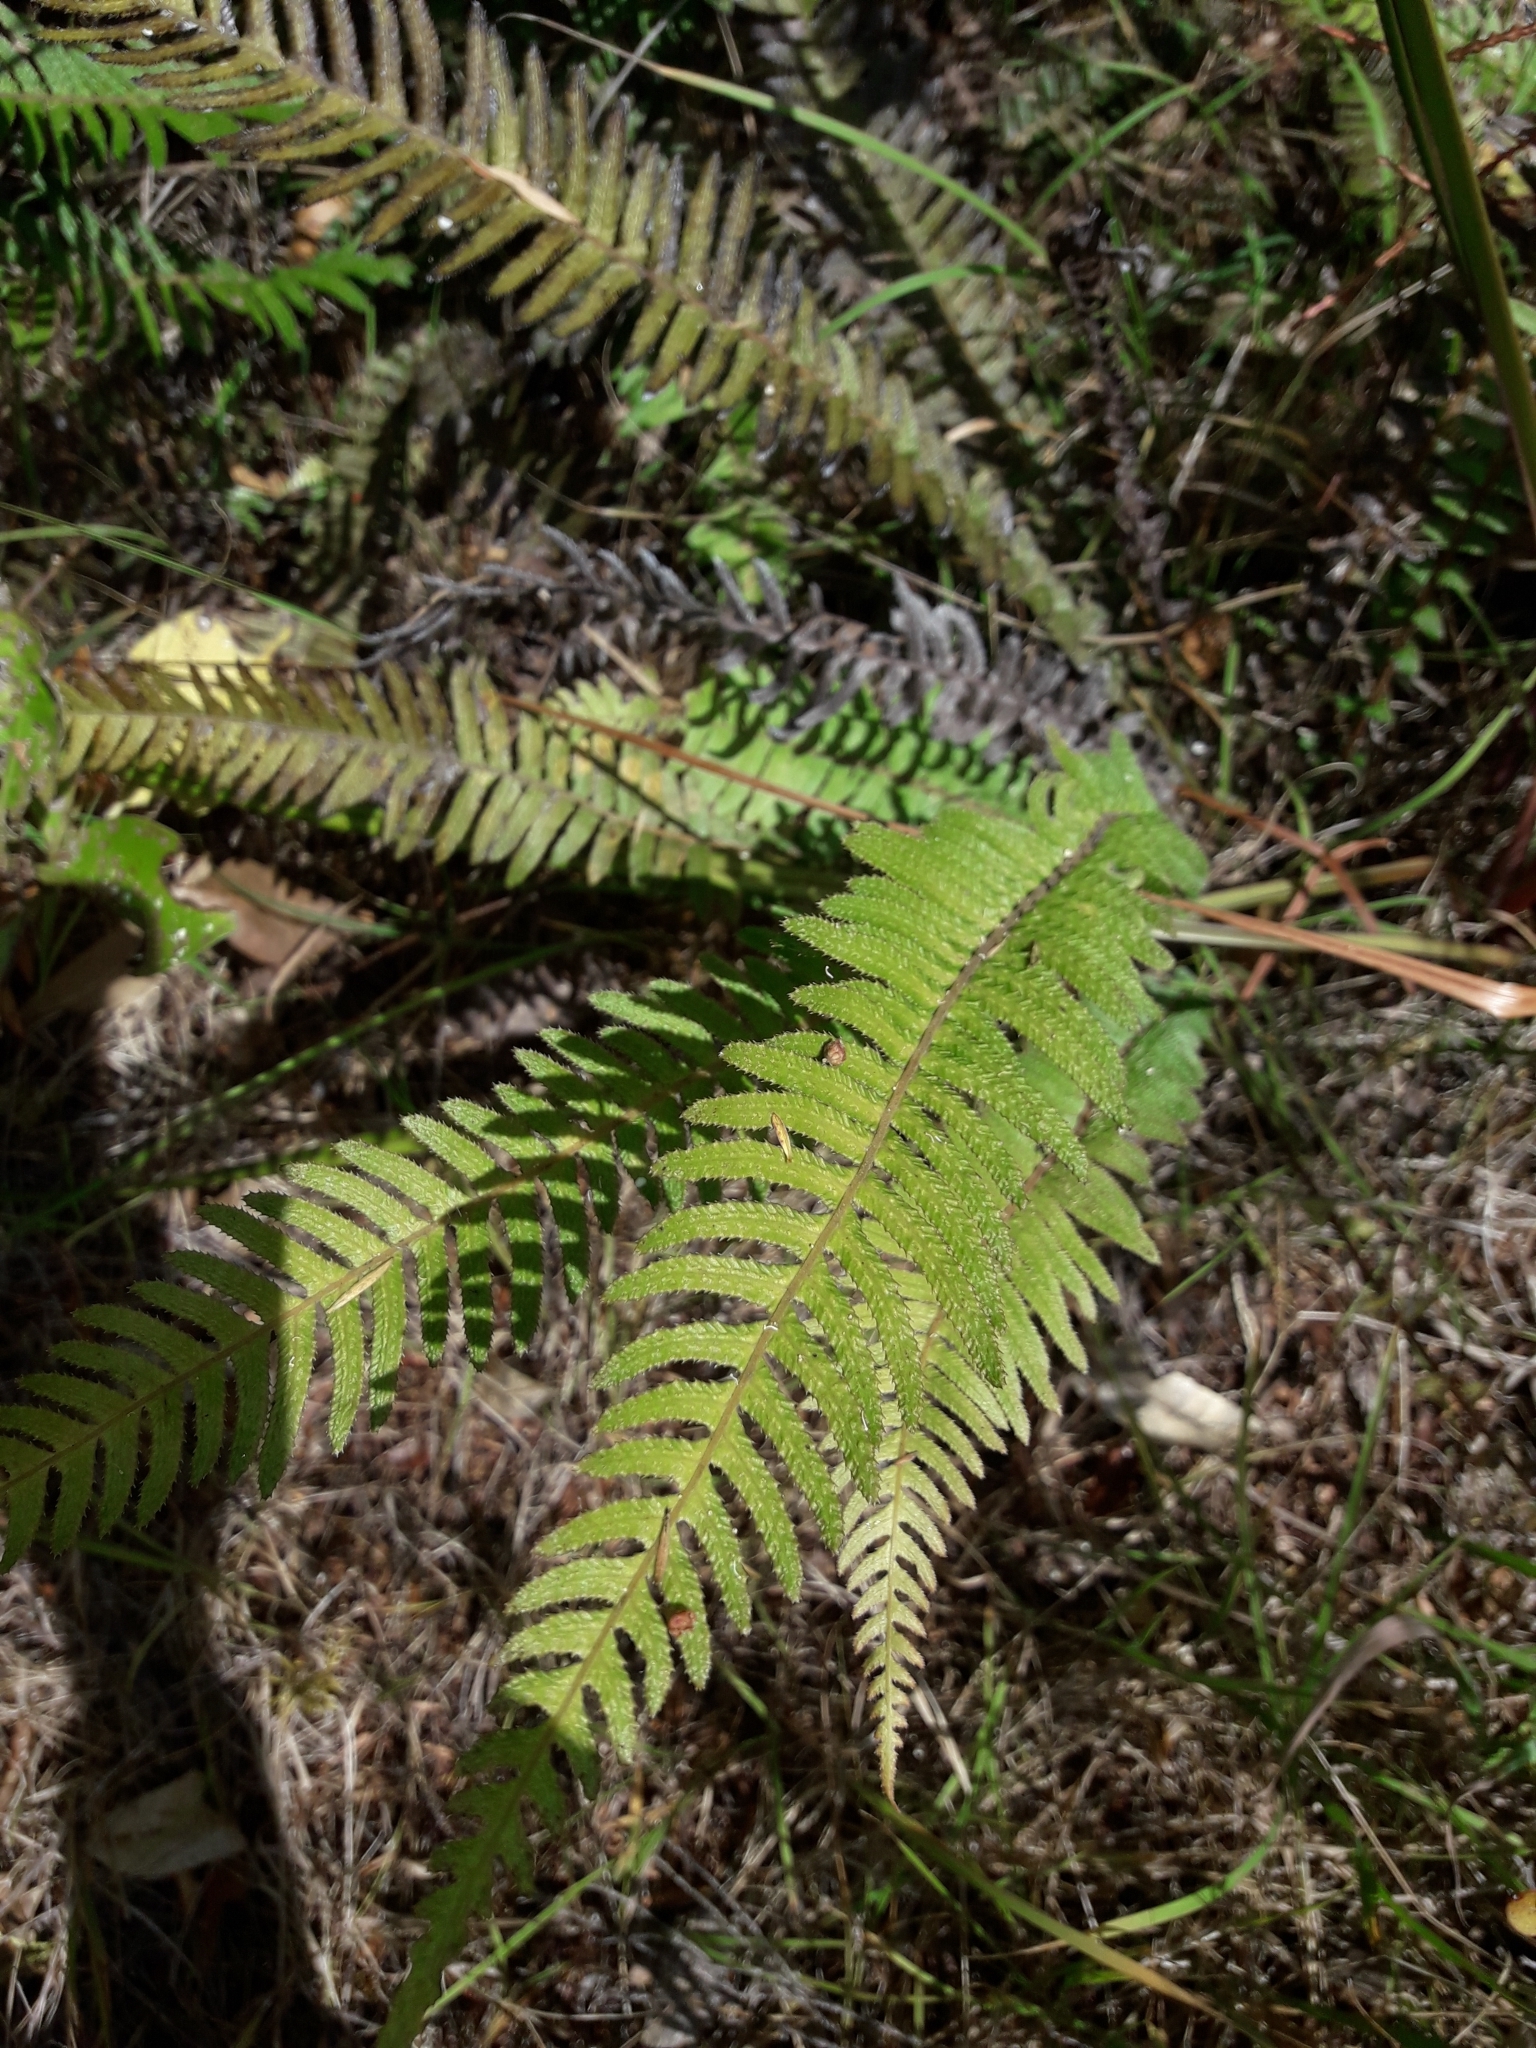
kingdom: Plantae
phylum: Tracheophyta
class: Polypodiopsida
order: Polypodiales
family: Blechnaceae
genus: Doodia
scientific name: Doodia australis
